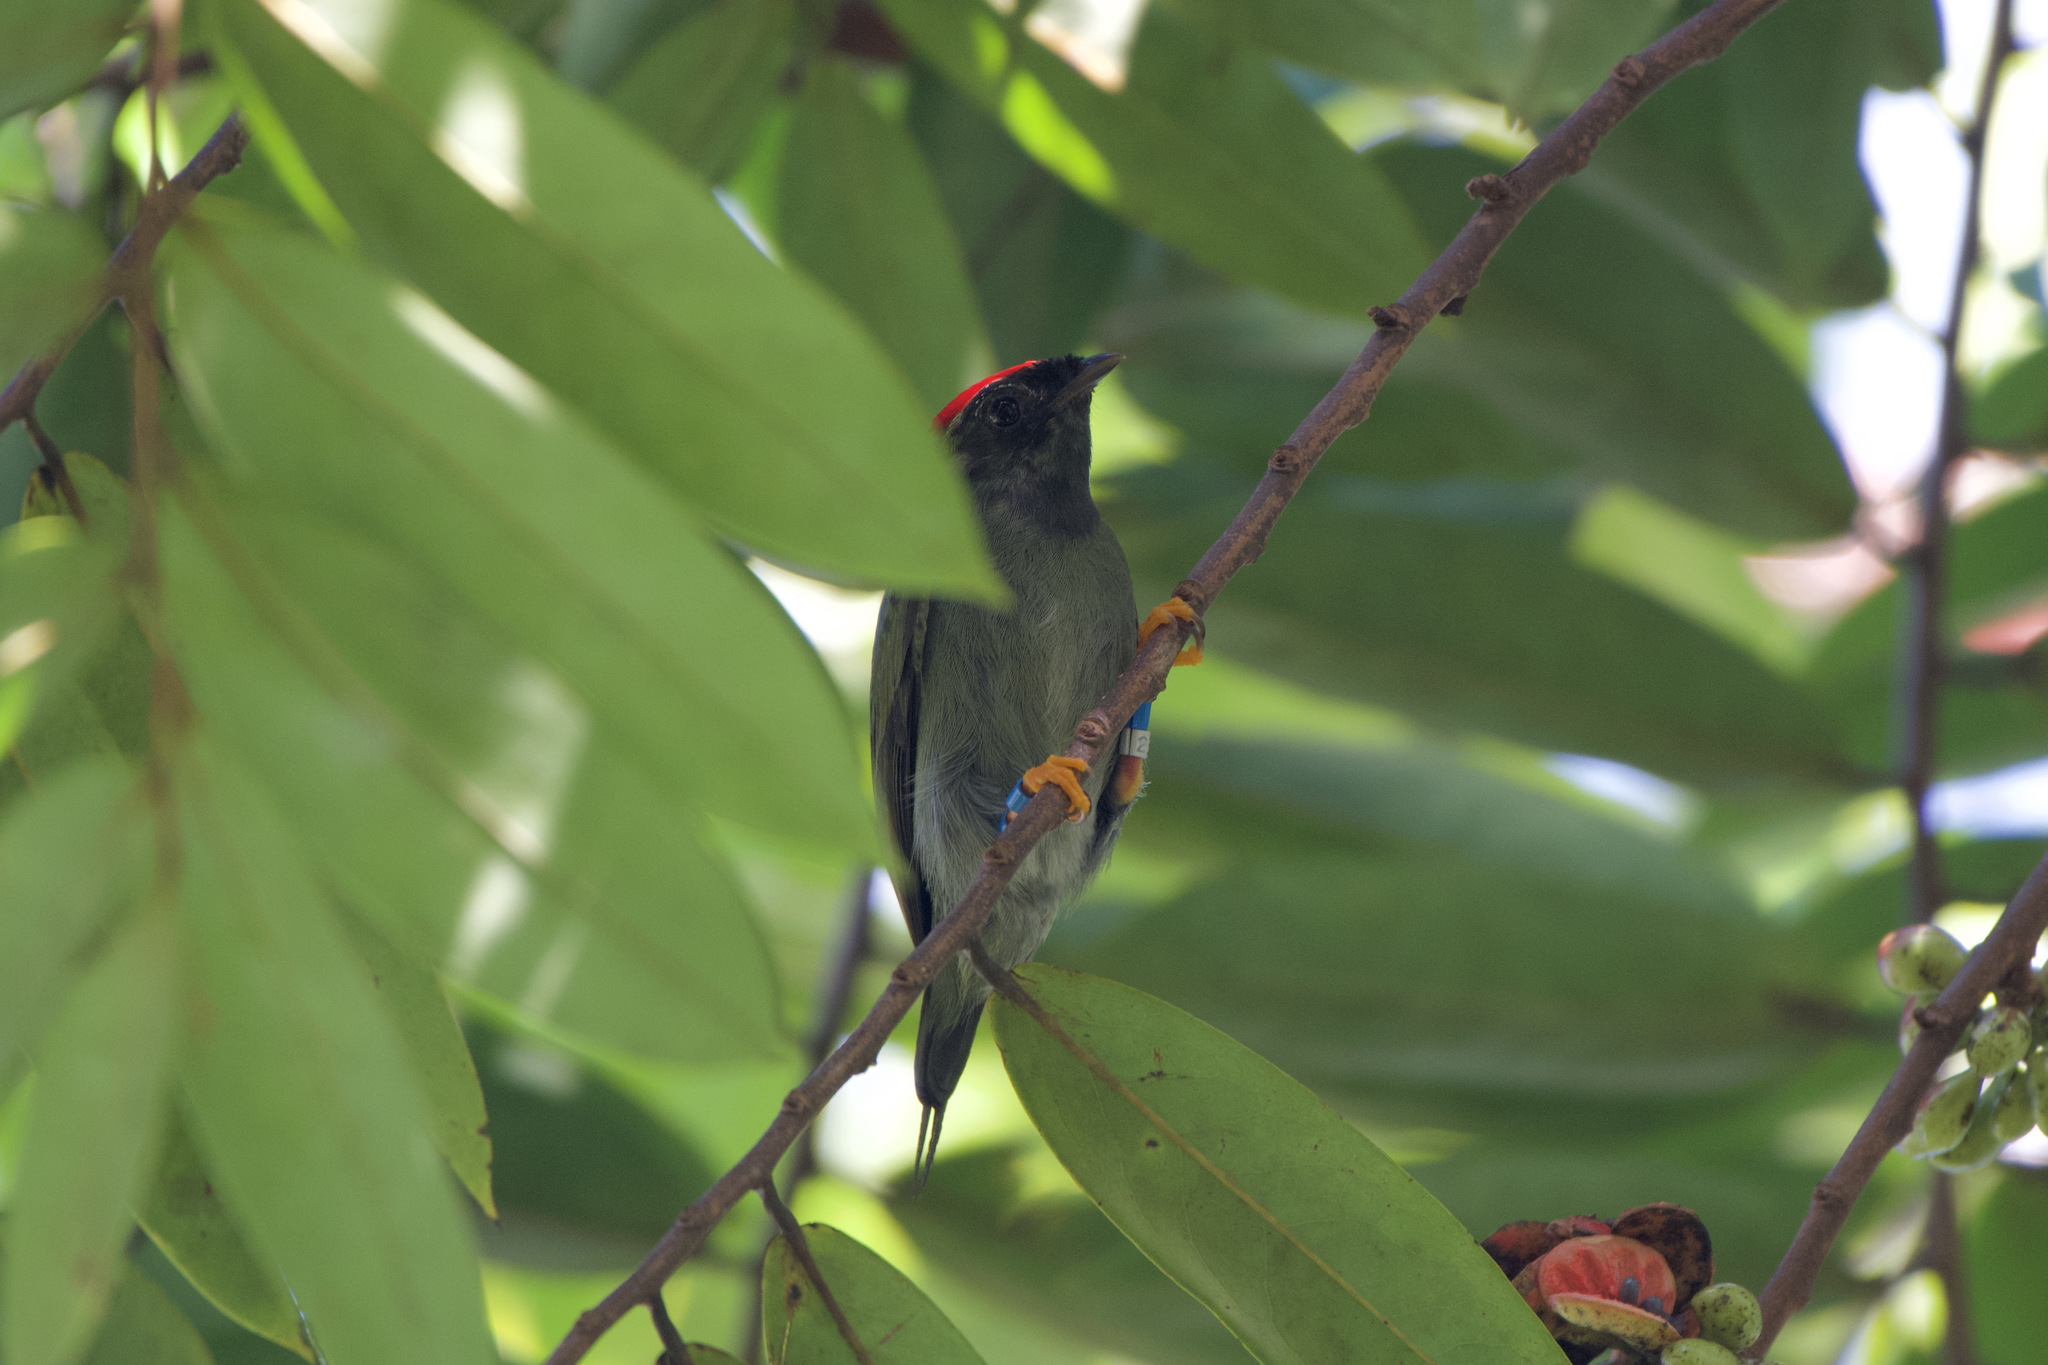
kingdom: Animalia
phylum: Chordata
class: Aves
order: Passeriformes
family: Pipridae
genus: Chiroxiphia
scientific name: Chiroxiphia lanceolata
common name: Lance-tailed manakin
